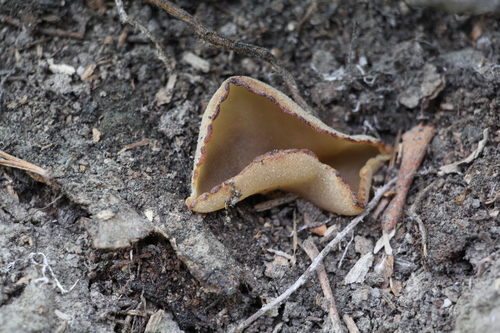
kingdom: Fungi
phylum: Ascomycota
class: Pezizomycetes
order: Pezizales
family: Pezizaceae
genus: Peziza
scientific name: Peziza varia
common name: Layered cup
